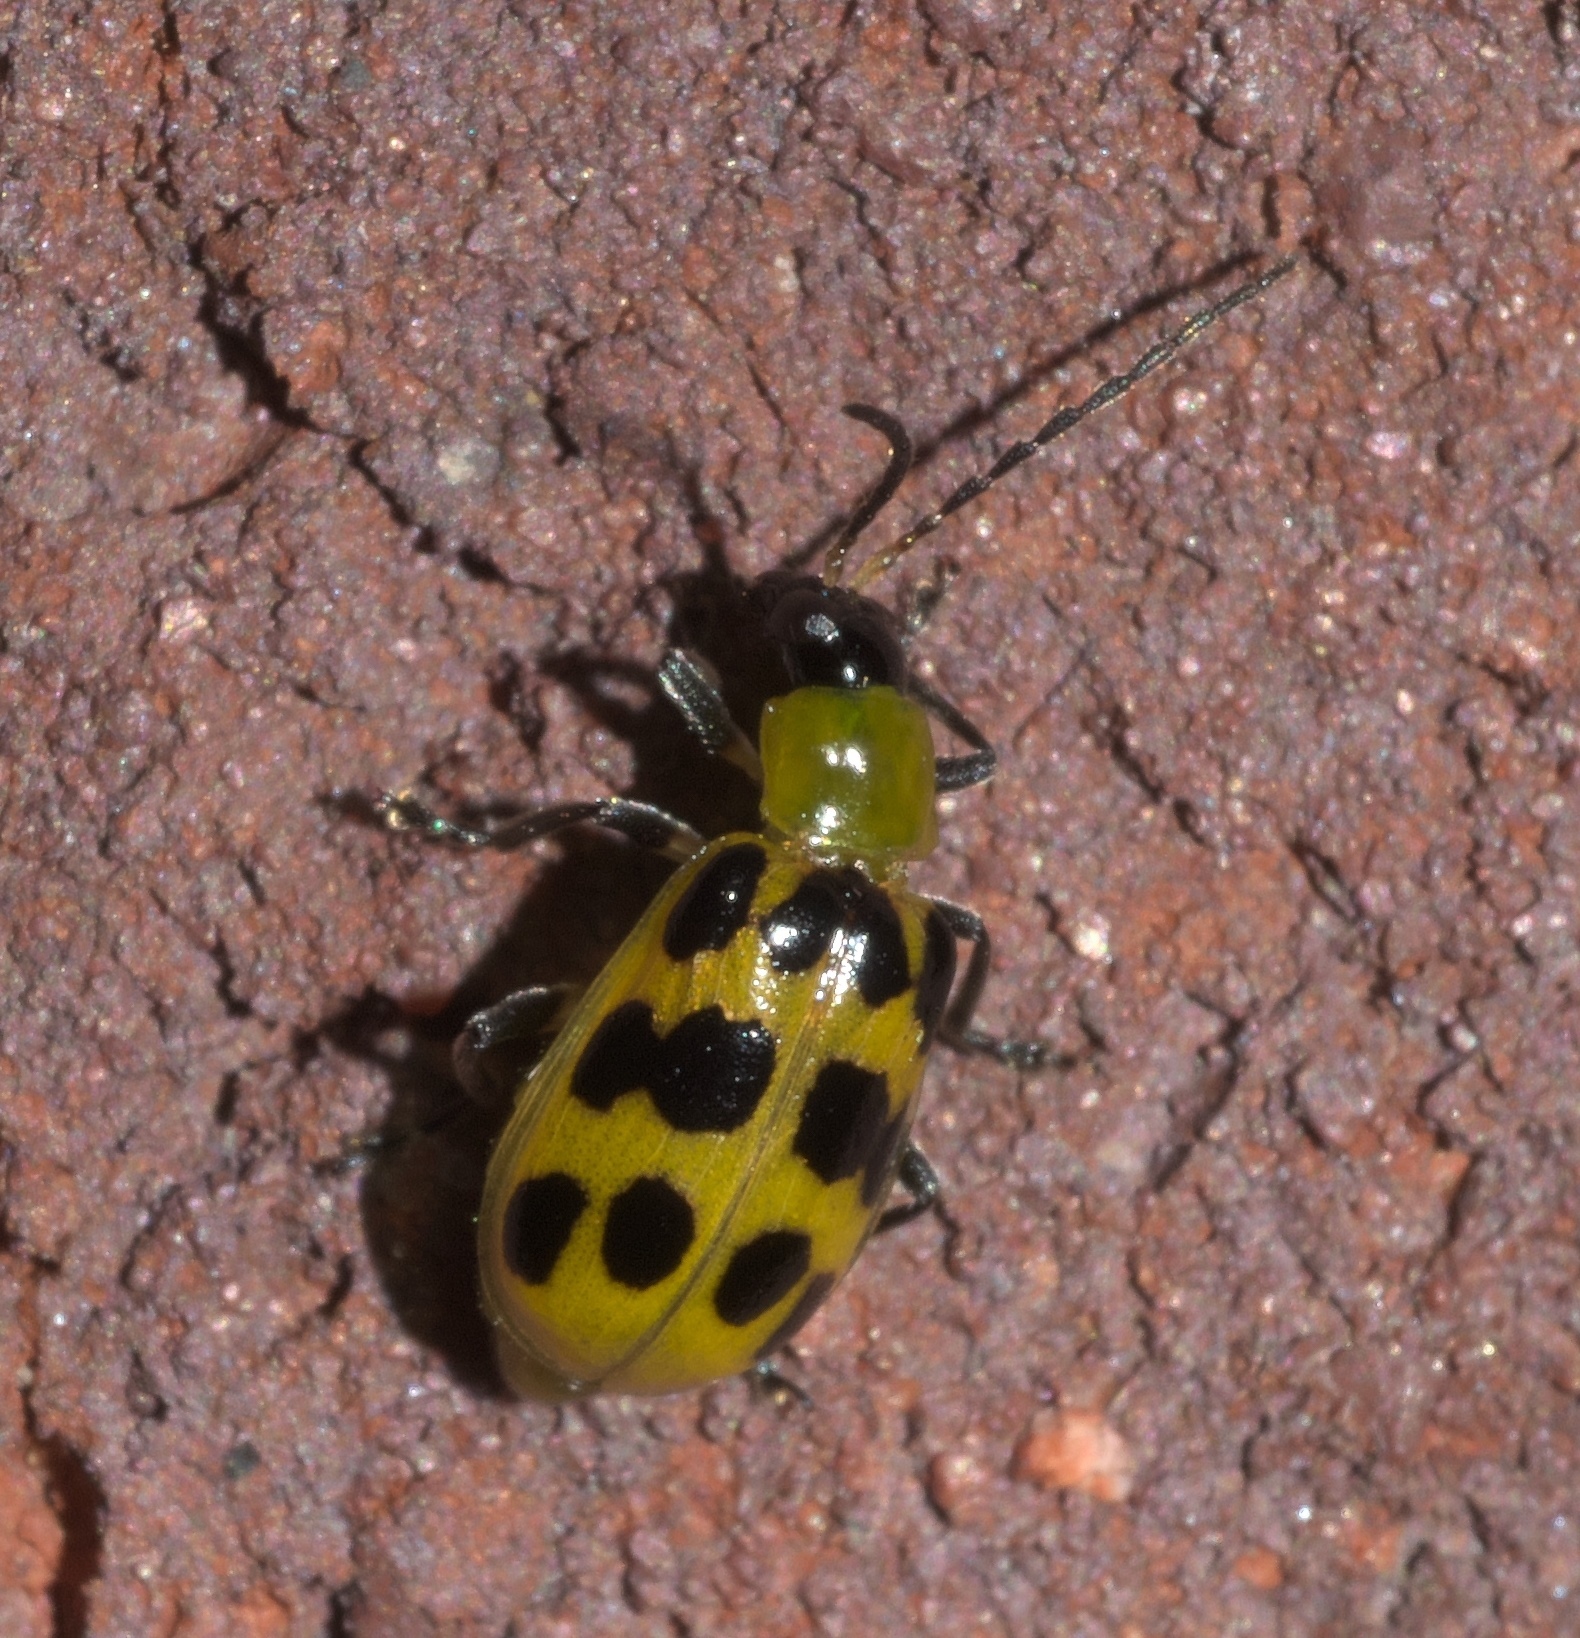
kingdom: Animalia
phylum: Arthropoda
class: Insecta
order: Coleoptera
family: Chrysomelidae
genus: Diabrotica
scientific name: Diabrotica undecimpunctata
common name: Spotted cucumber beetle
